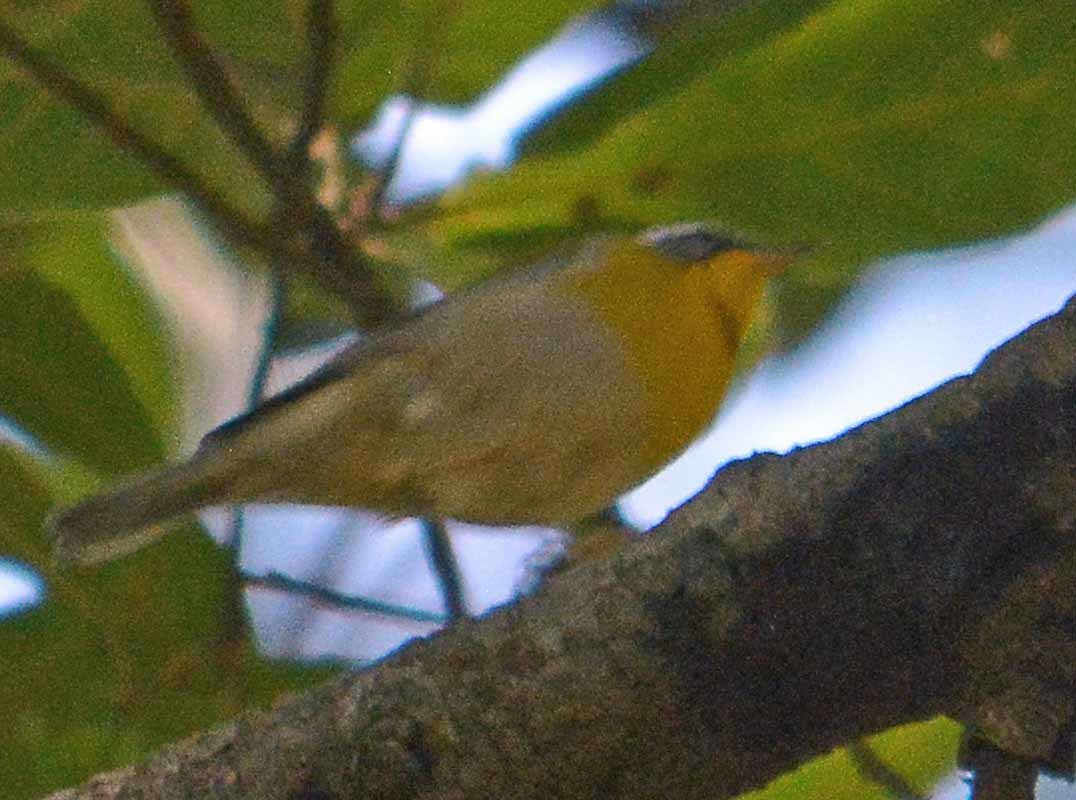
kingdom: Animalia
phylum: Chordata
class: Aves
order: Passeriformes
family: Parulidae
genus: Oreothlypis
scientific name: Oreothlypis superciliosa
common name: Crescent-chested warbler
